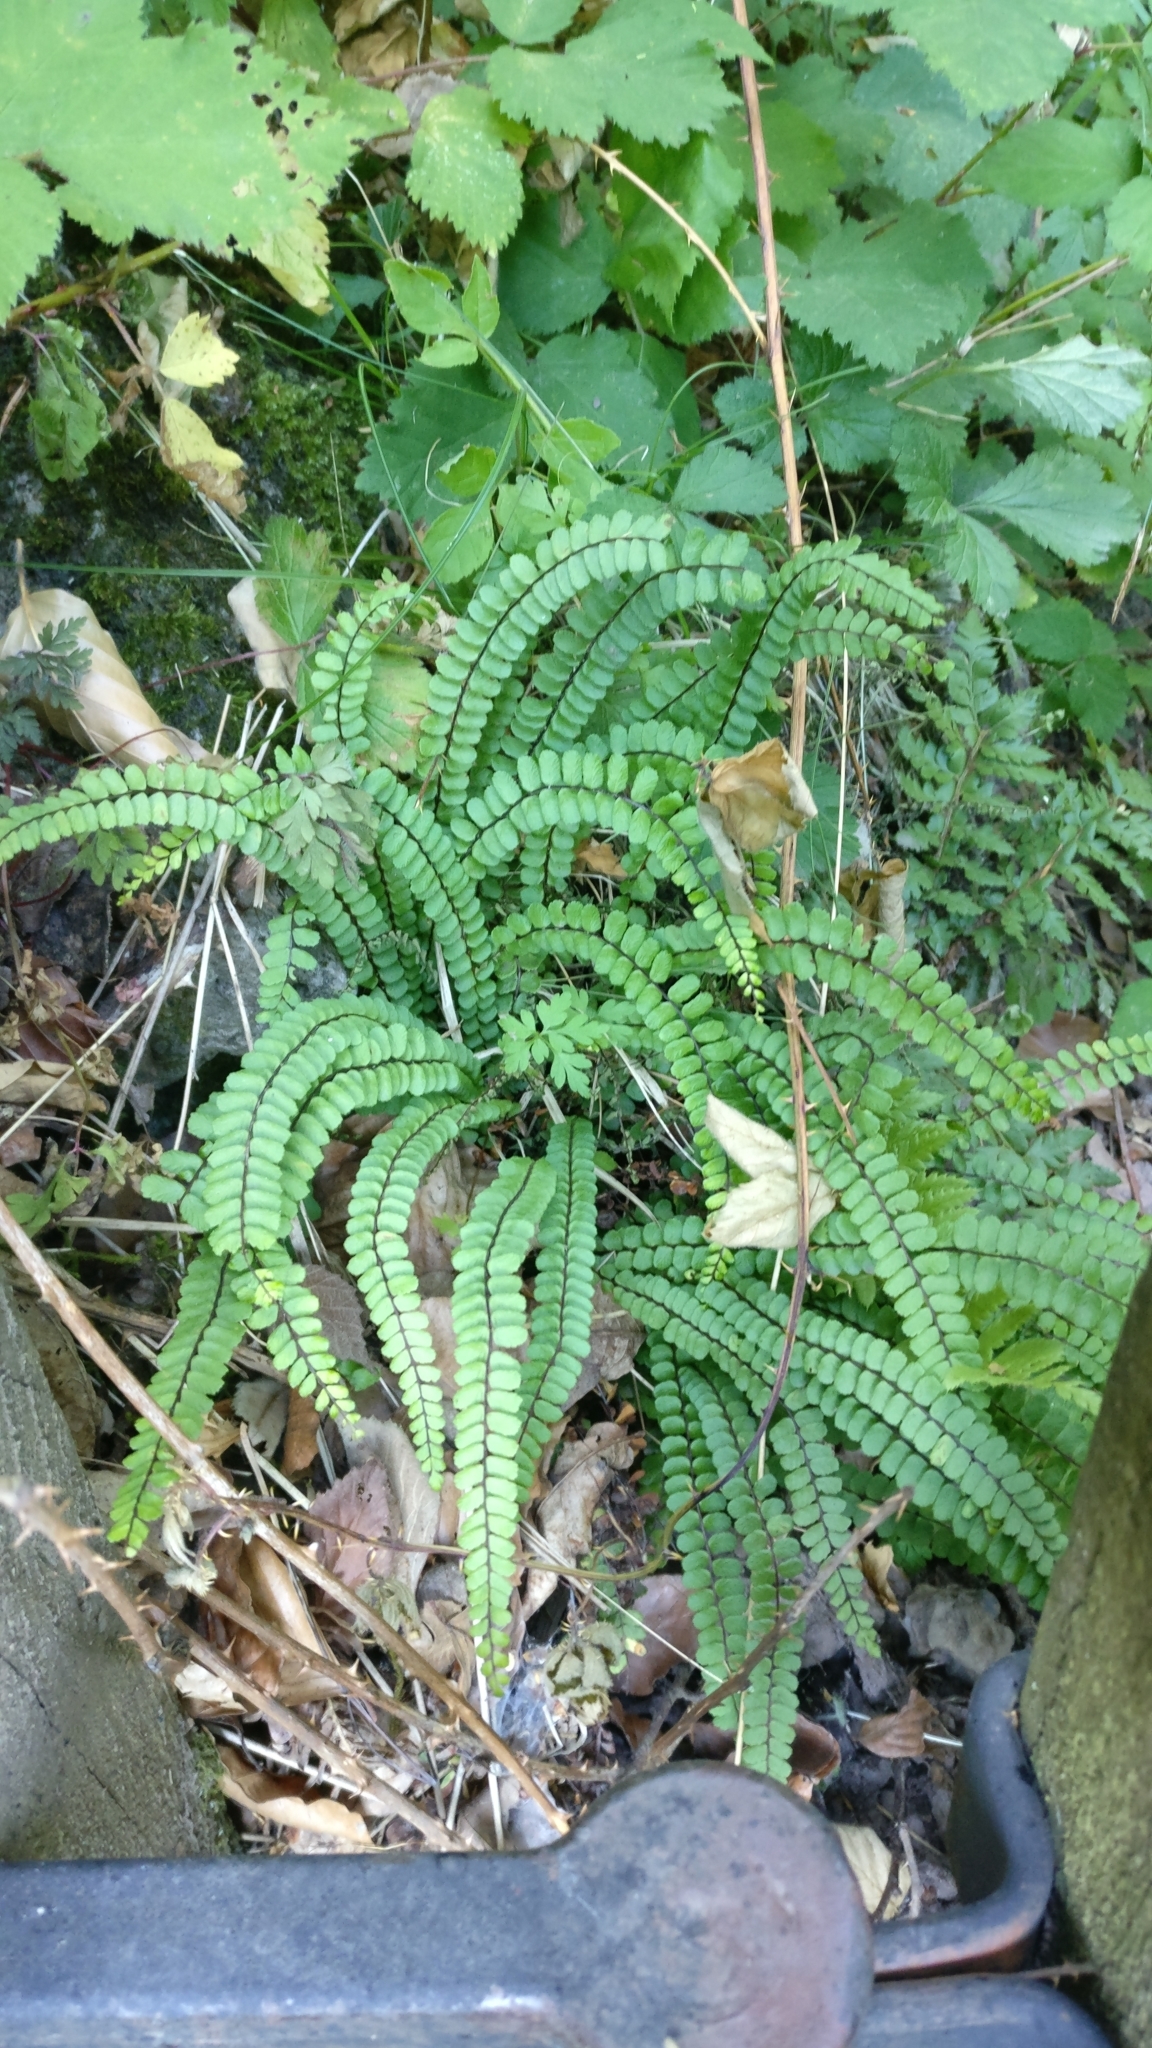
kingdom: Plantae
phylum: Tracheophyta
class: Polypodiopsida
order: Polypodiales
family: Aspleniaceae
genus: Asplenium
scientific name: Asplenium trichomanes
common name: Maidenhair spleenwort
